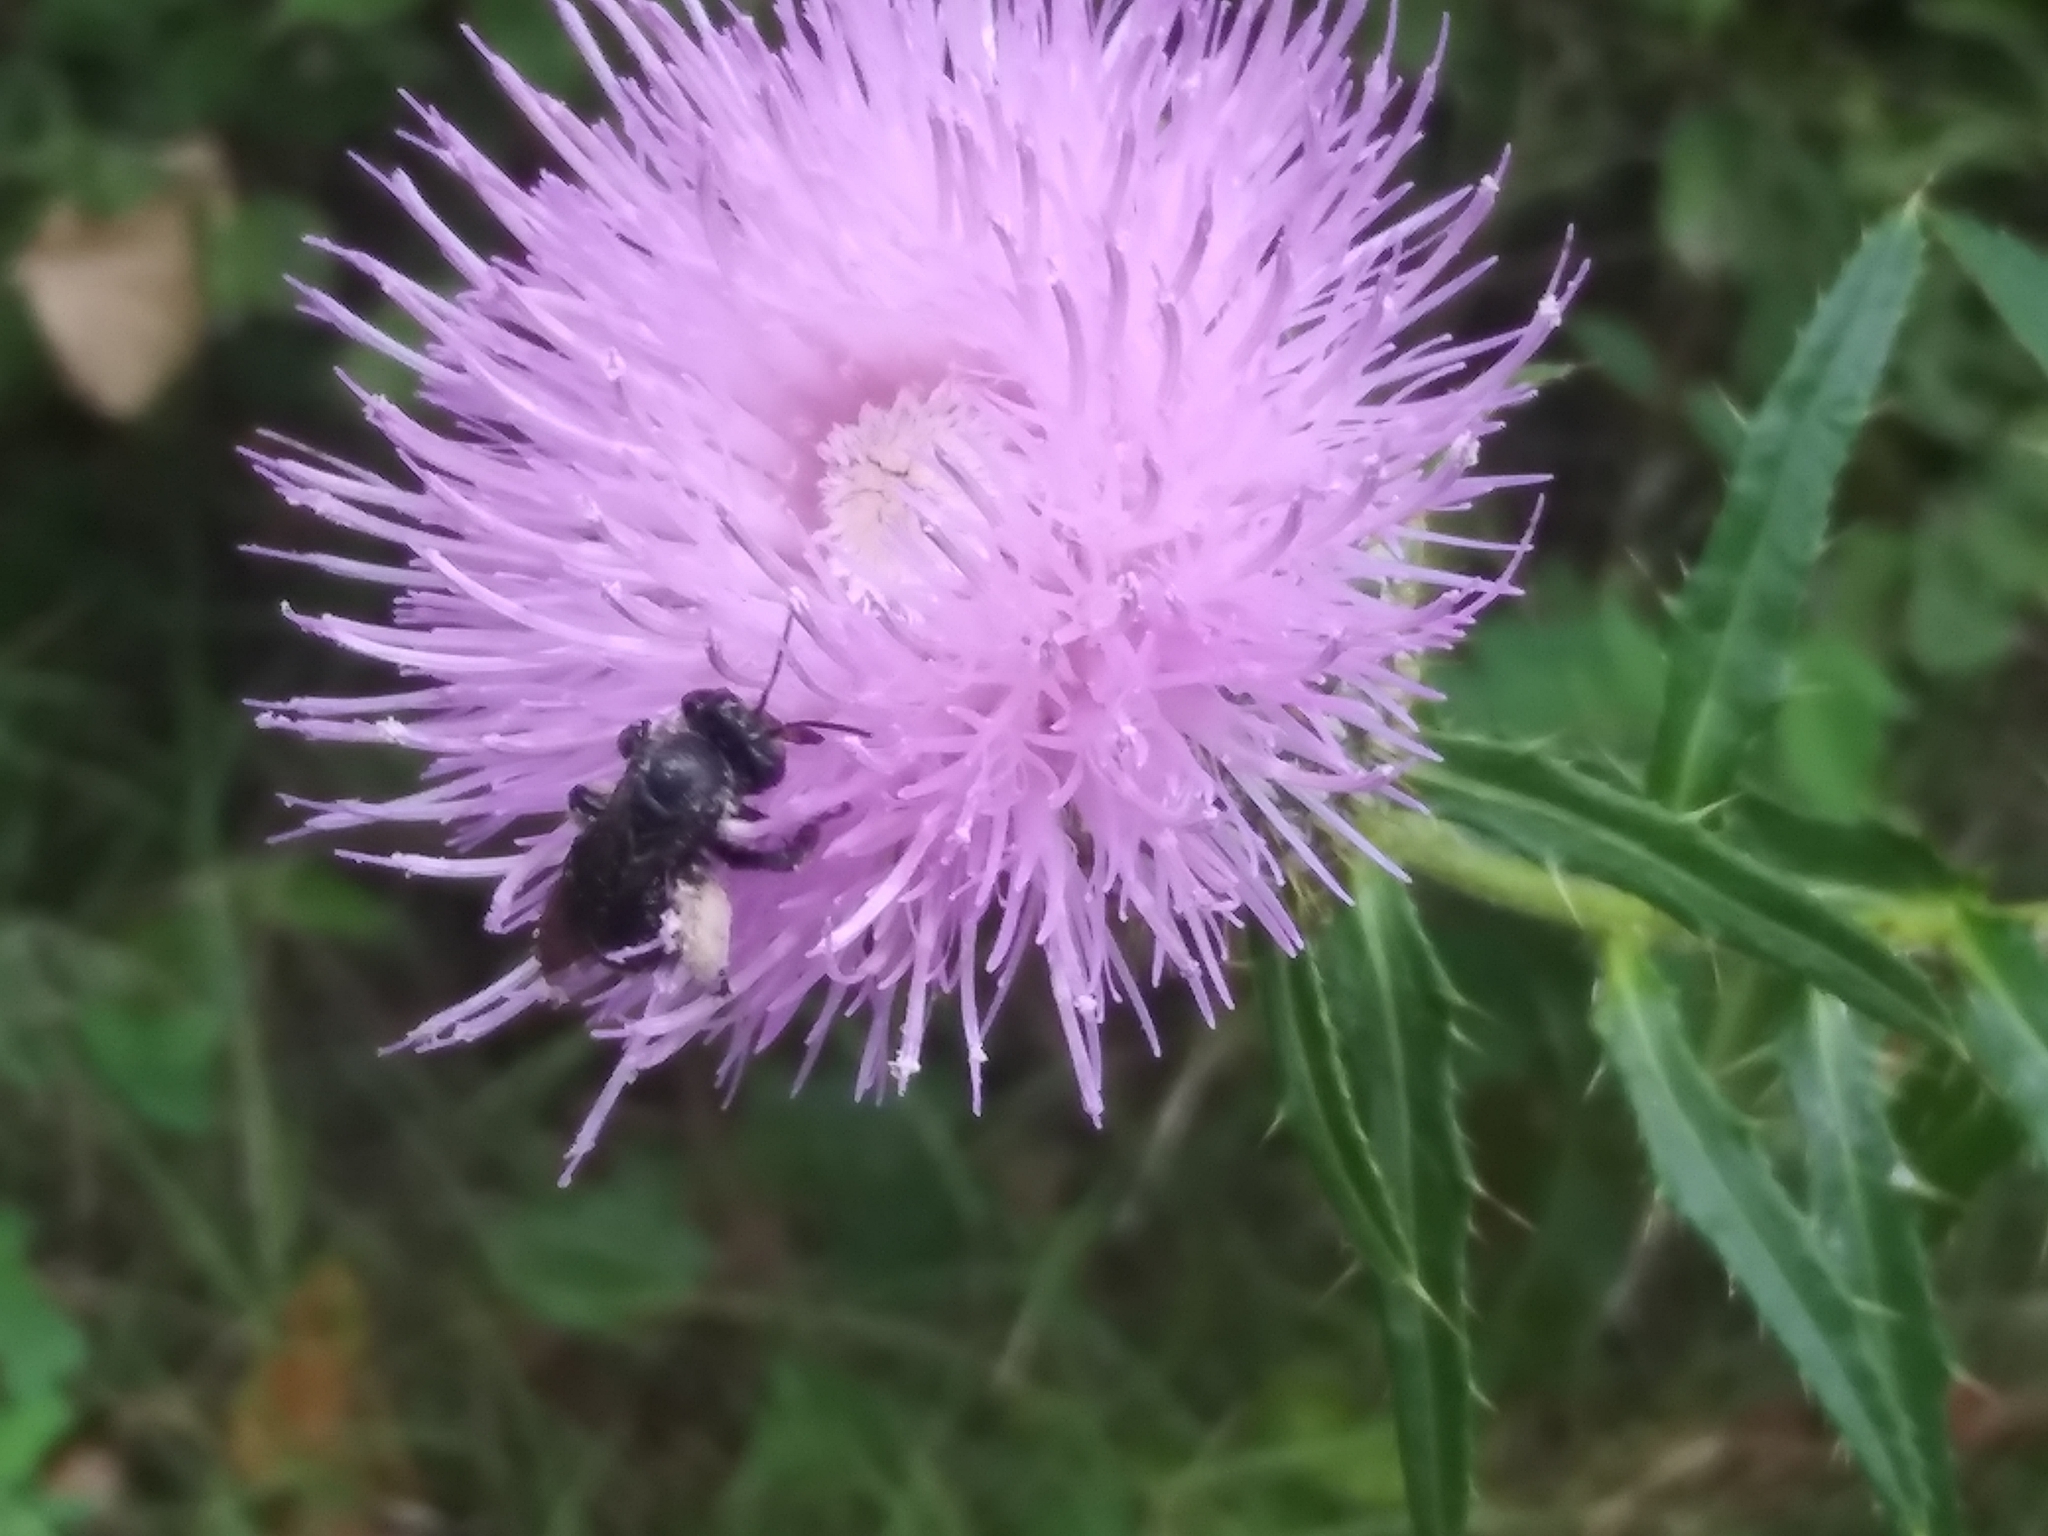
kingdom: Animalia
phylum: Arthropoda
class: Insecta
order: Hymenoptera
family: Apidae
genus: Melissodes
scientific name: Melissodes bimaculatus
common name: Two-spotted long-horned bee
